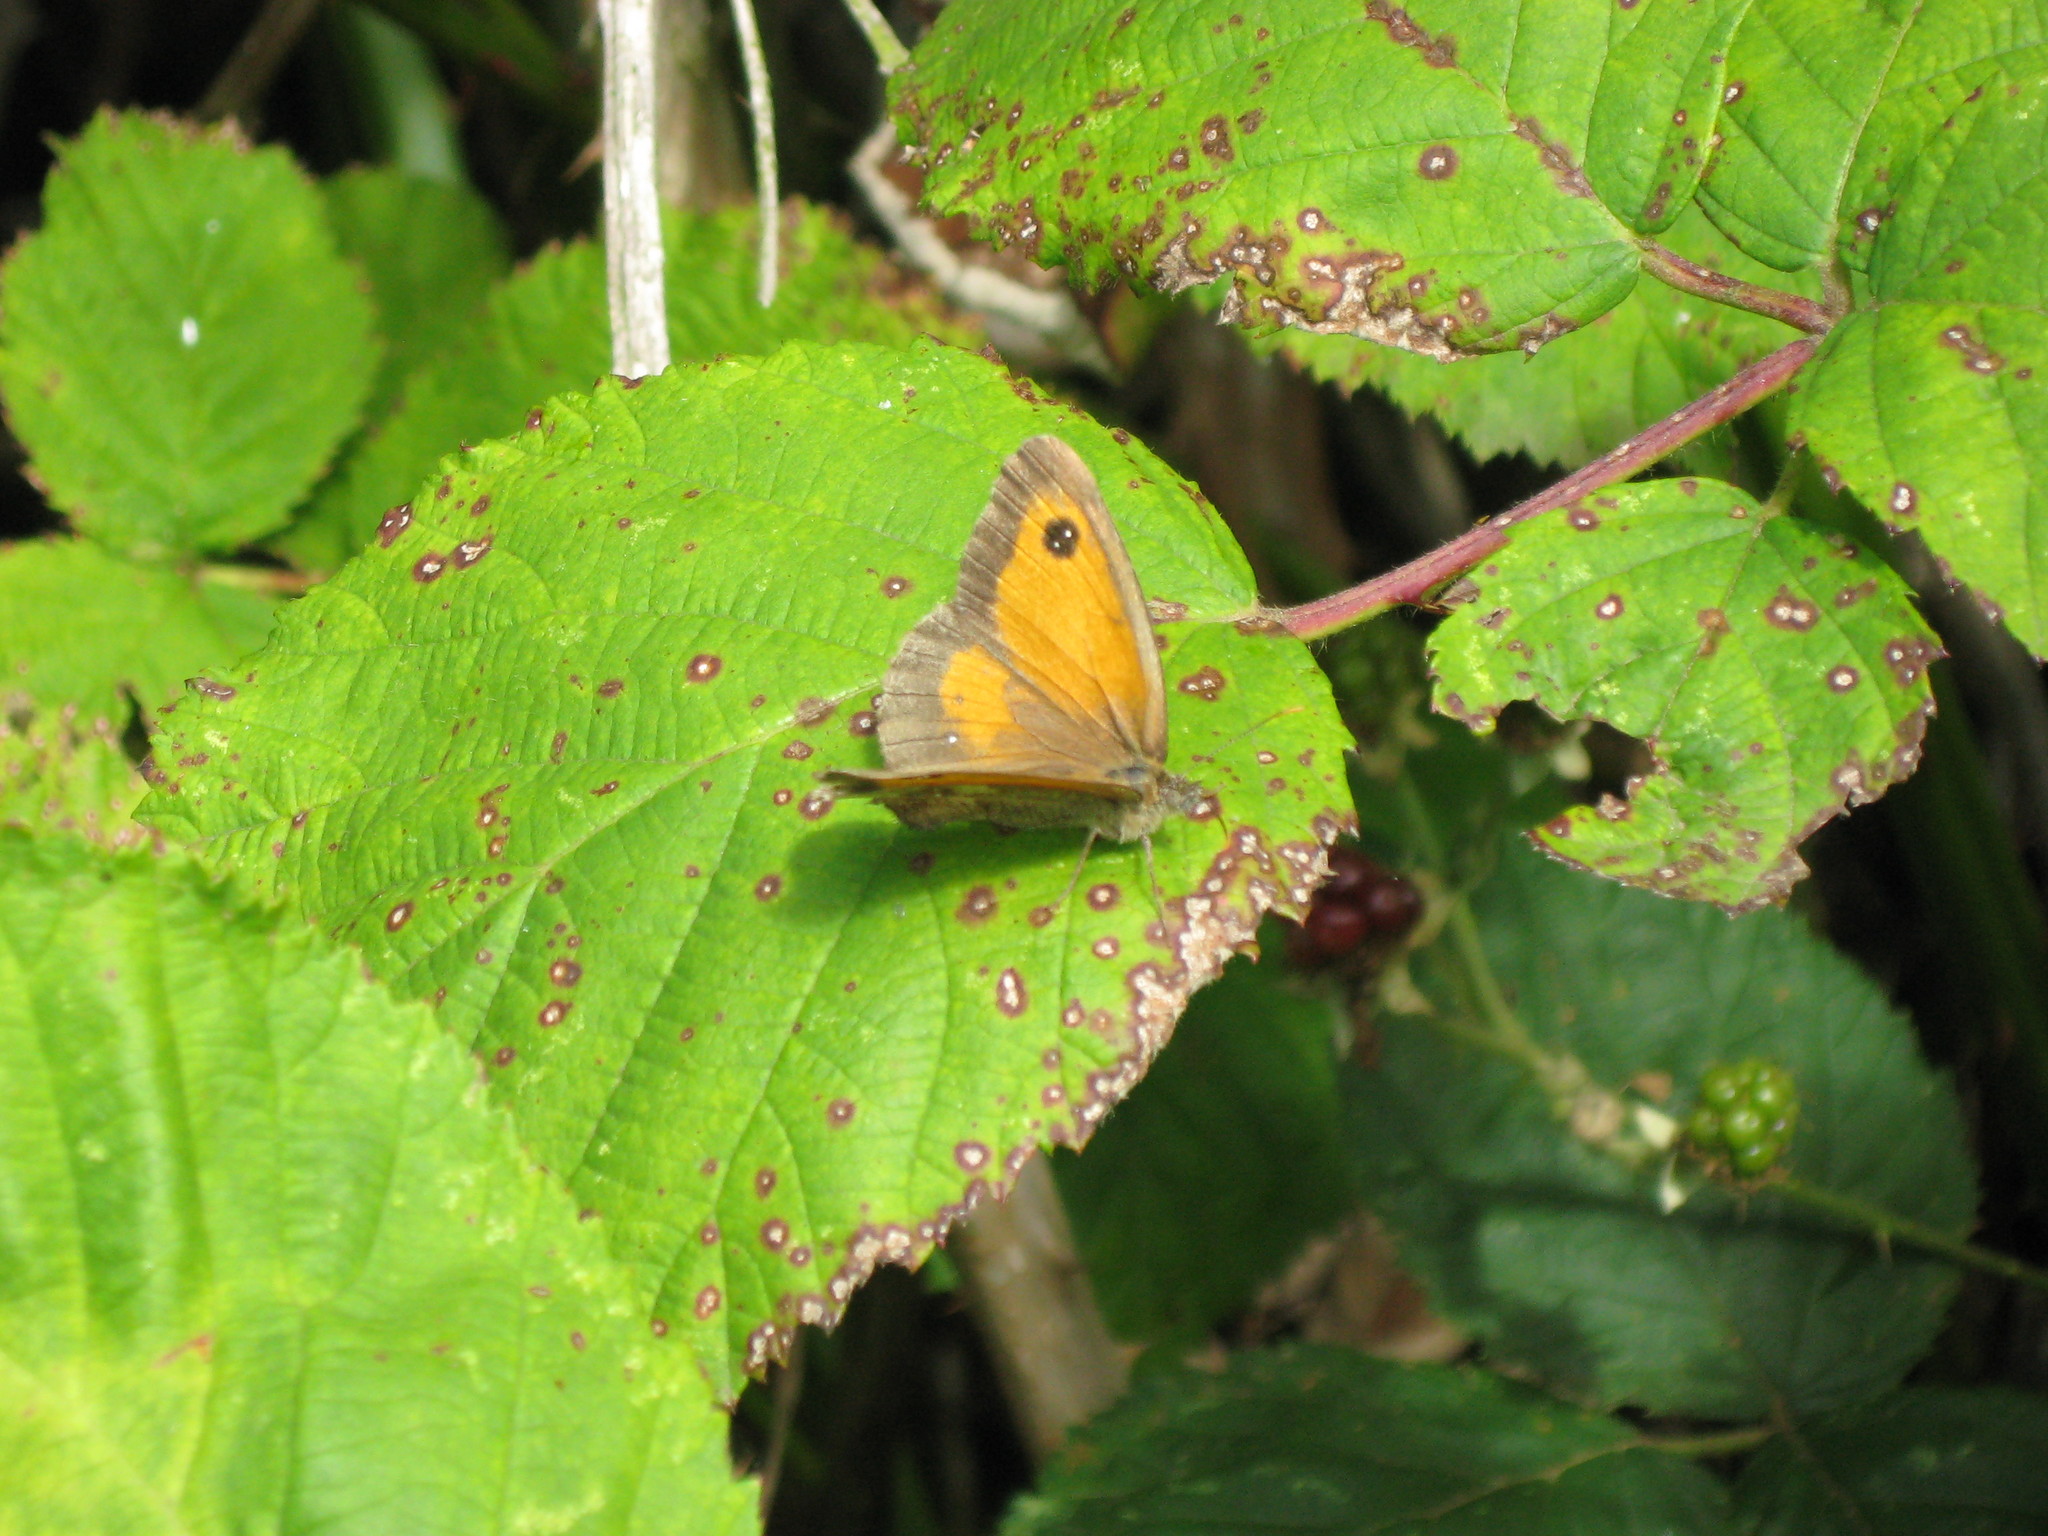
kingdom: Animalia
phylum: Arthropoda
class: Insecta
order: Lepidoptera
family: Nymphalidae
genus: Pyronia
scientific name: Pyronia tithonus
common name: Gatekeeper
